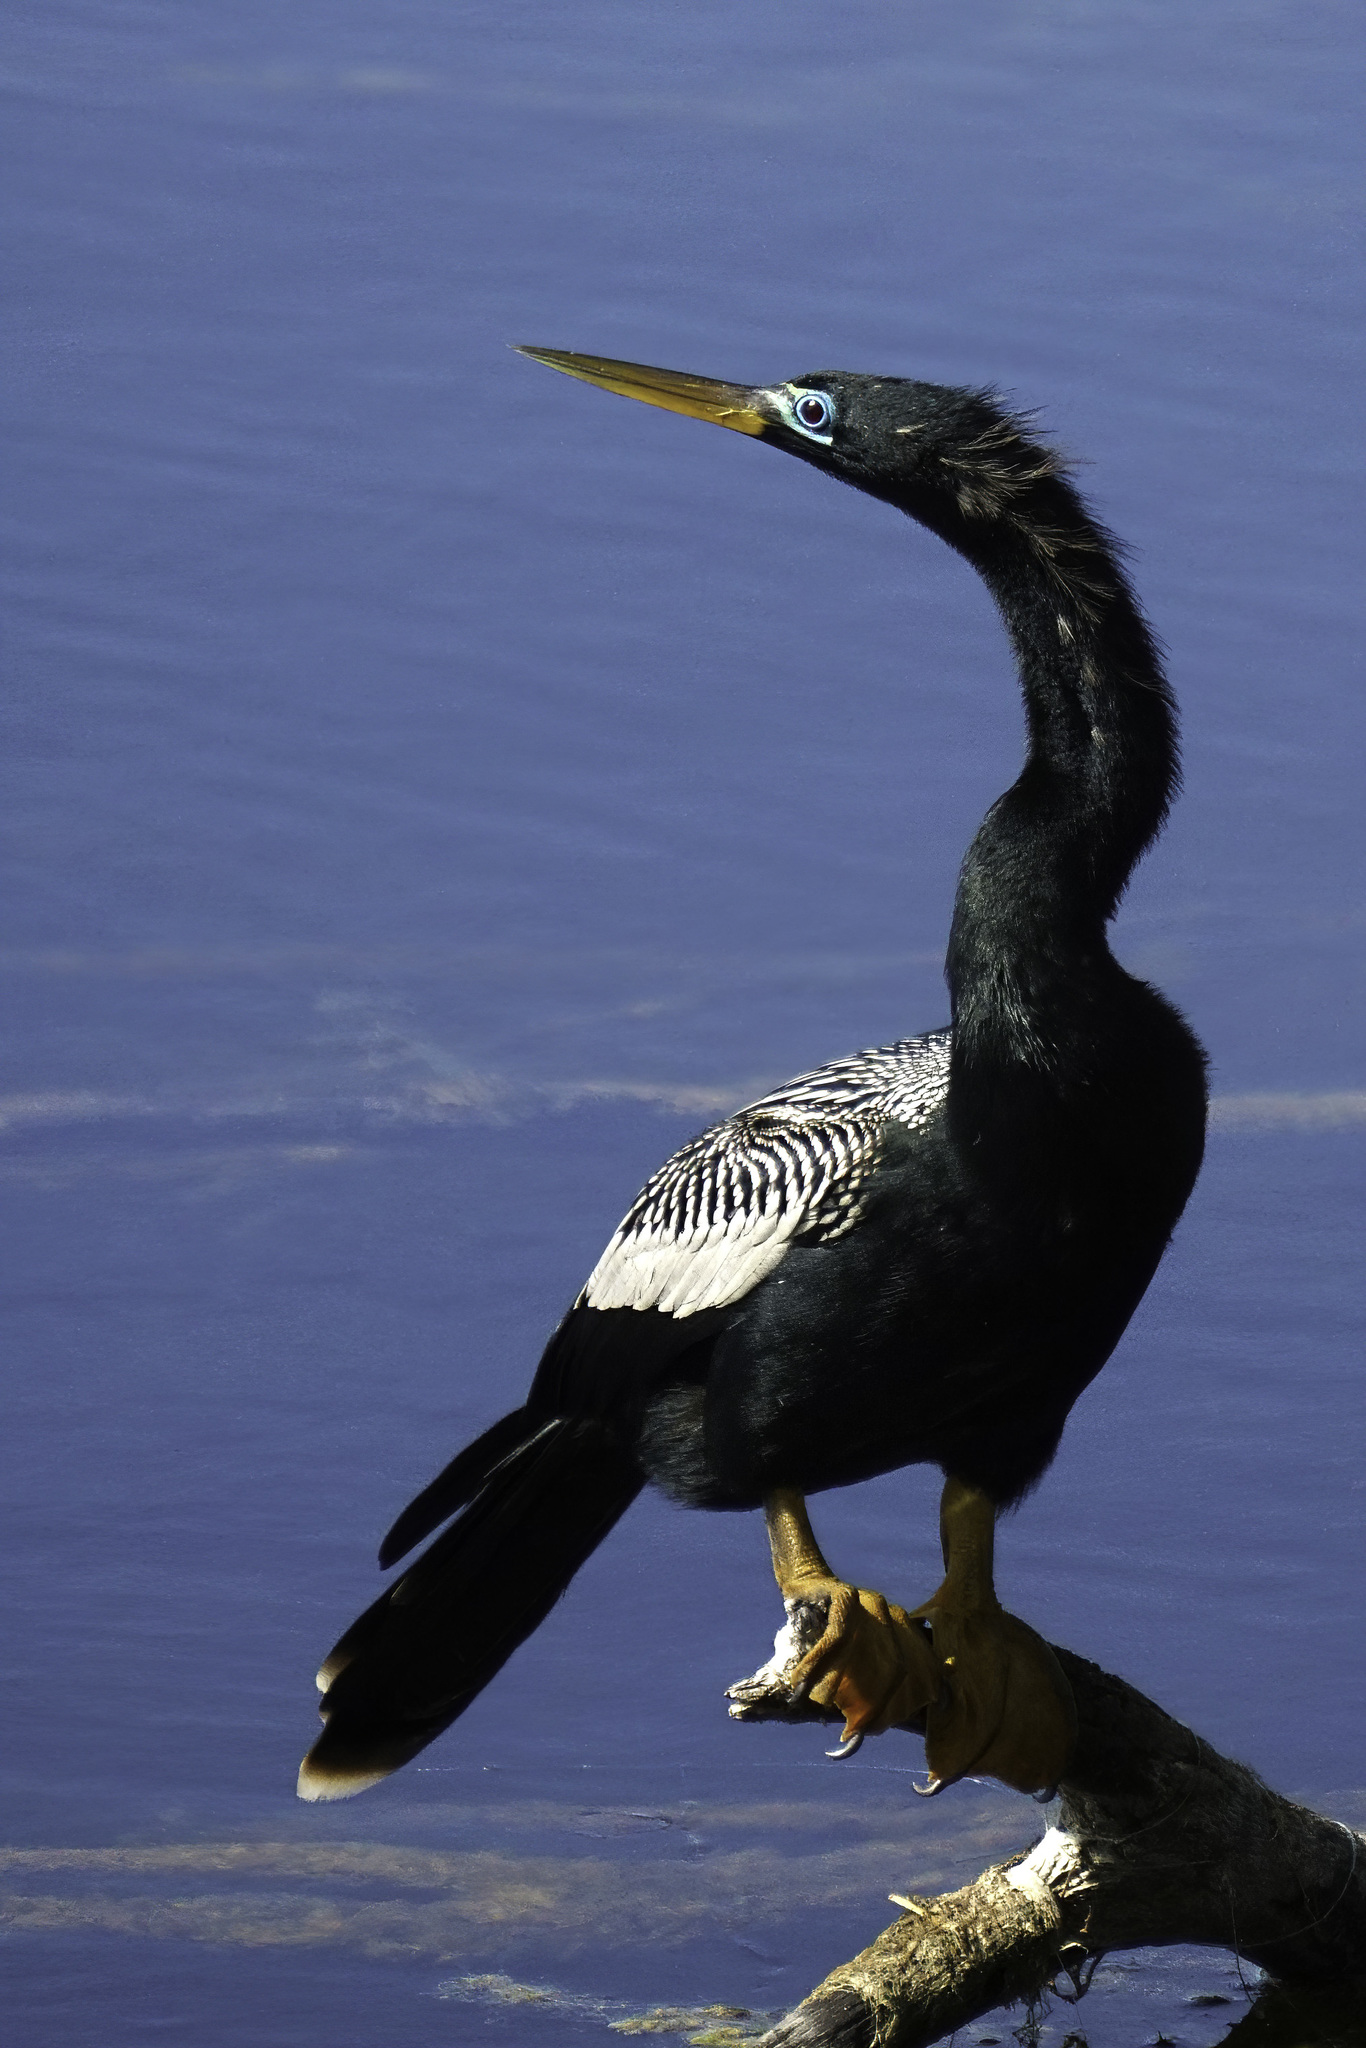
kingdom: Animalia
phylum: Chordata
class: Aves
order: Suliformes
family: Anhingidae
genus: Anhinga
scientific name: Anhinga anhinga
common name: Anhinga
